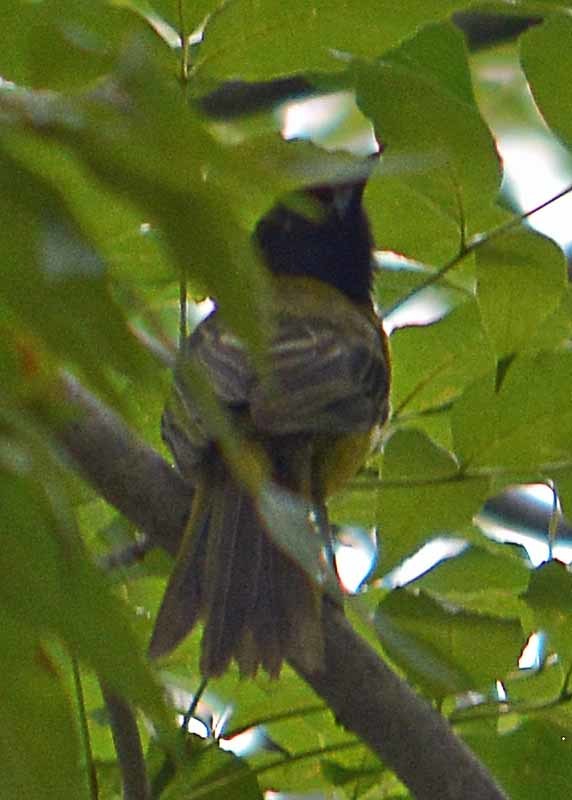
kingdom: Animalia
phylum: Chordata
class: Aves
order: Passeriformes
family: Icteridae
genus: Icterus
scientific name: Icterus graduacauda
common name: Audubon's oriole
